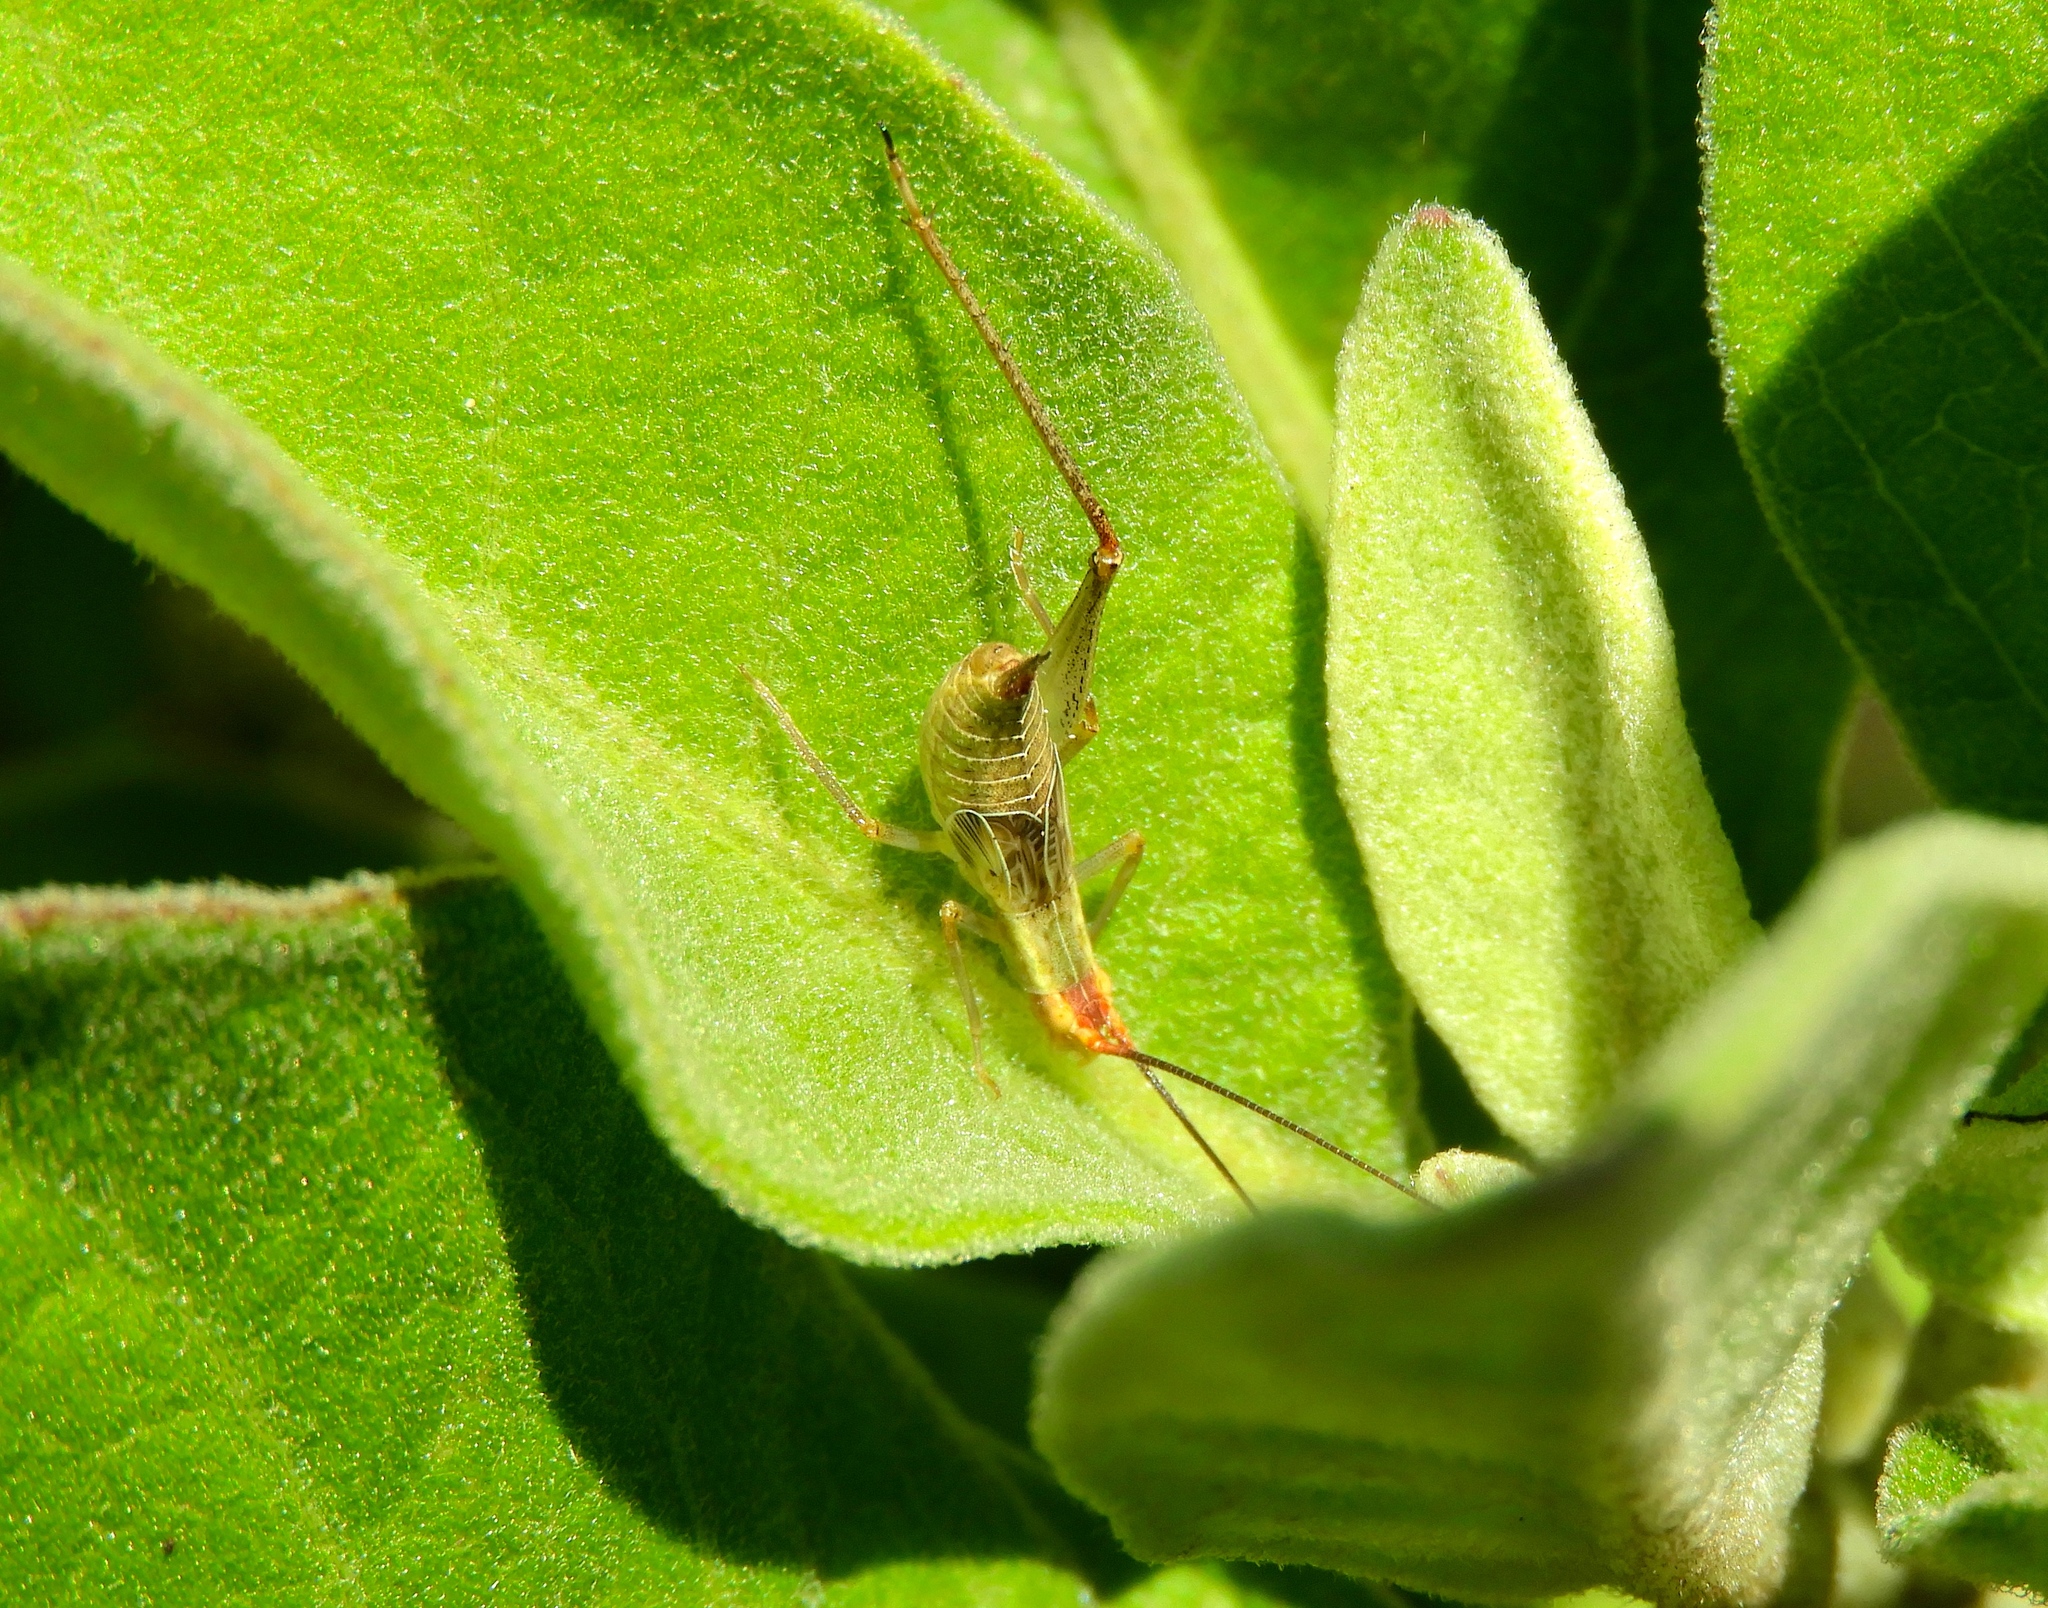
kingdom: Animalia
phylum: Arthropoda
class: Insecta
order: Orthoptera
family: Gryllidae
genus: Oecanthus
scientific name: Oecanthus
